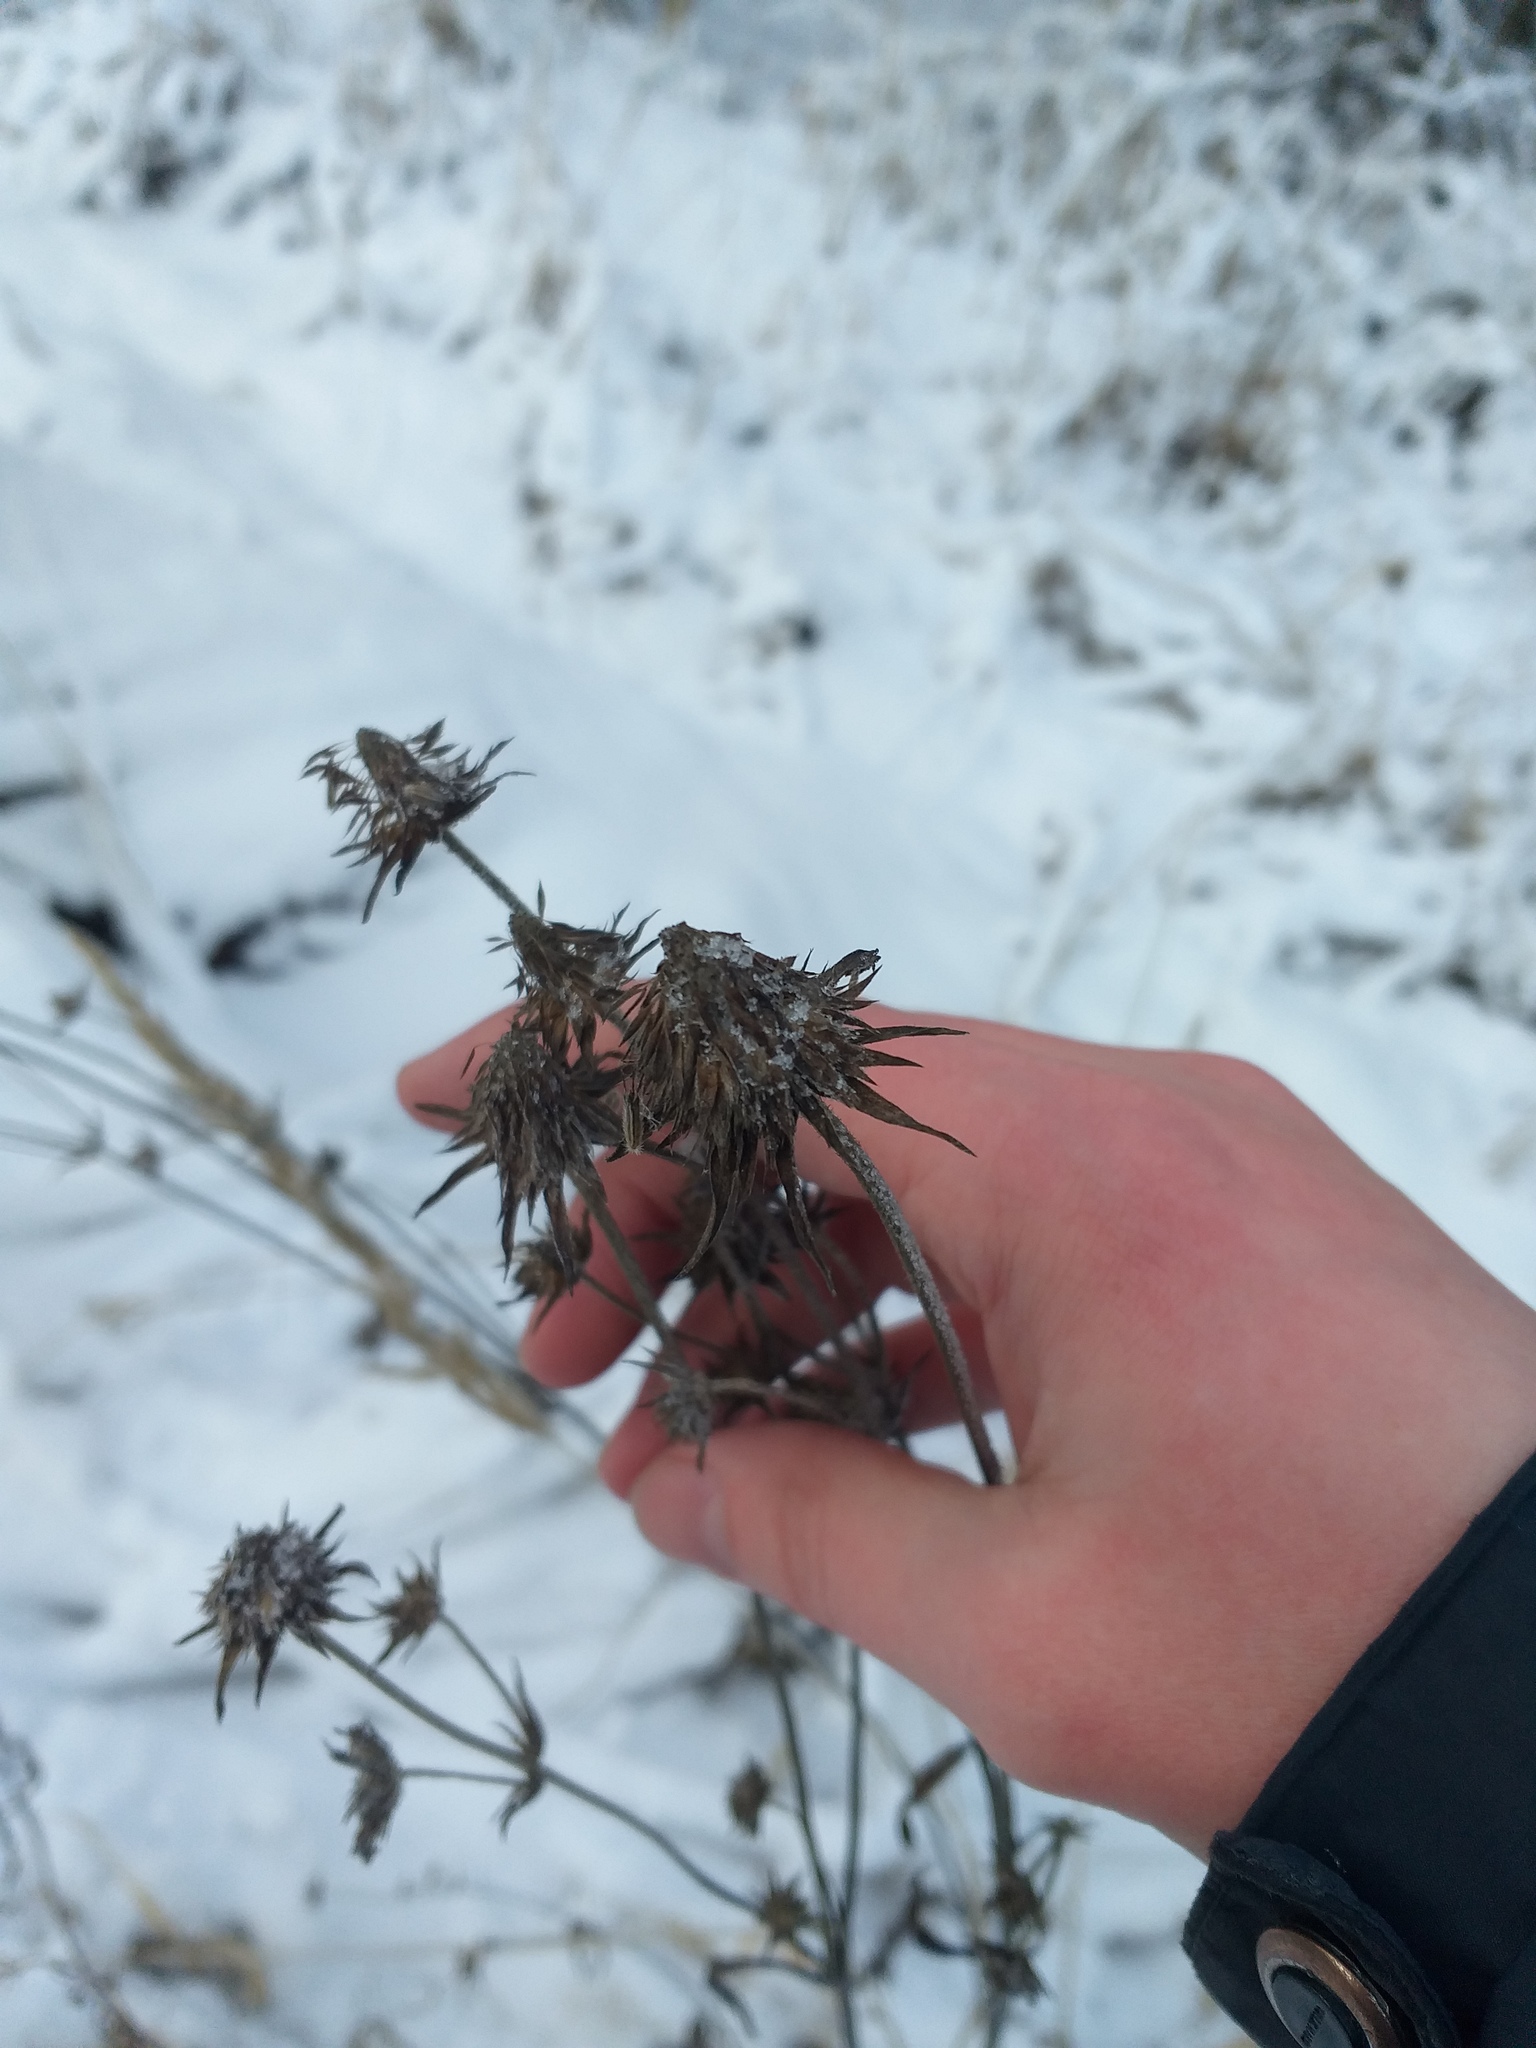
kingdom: Plantae
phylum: Tracheophyta
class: Magnoliopsida
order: Dipsacales
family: Caprifoliaceae
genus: Succisa
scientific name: Succisa pratensis
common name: Devil's-bit
